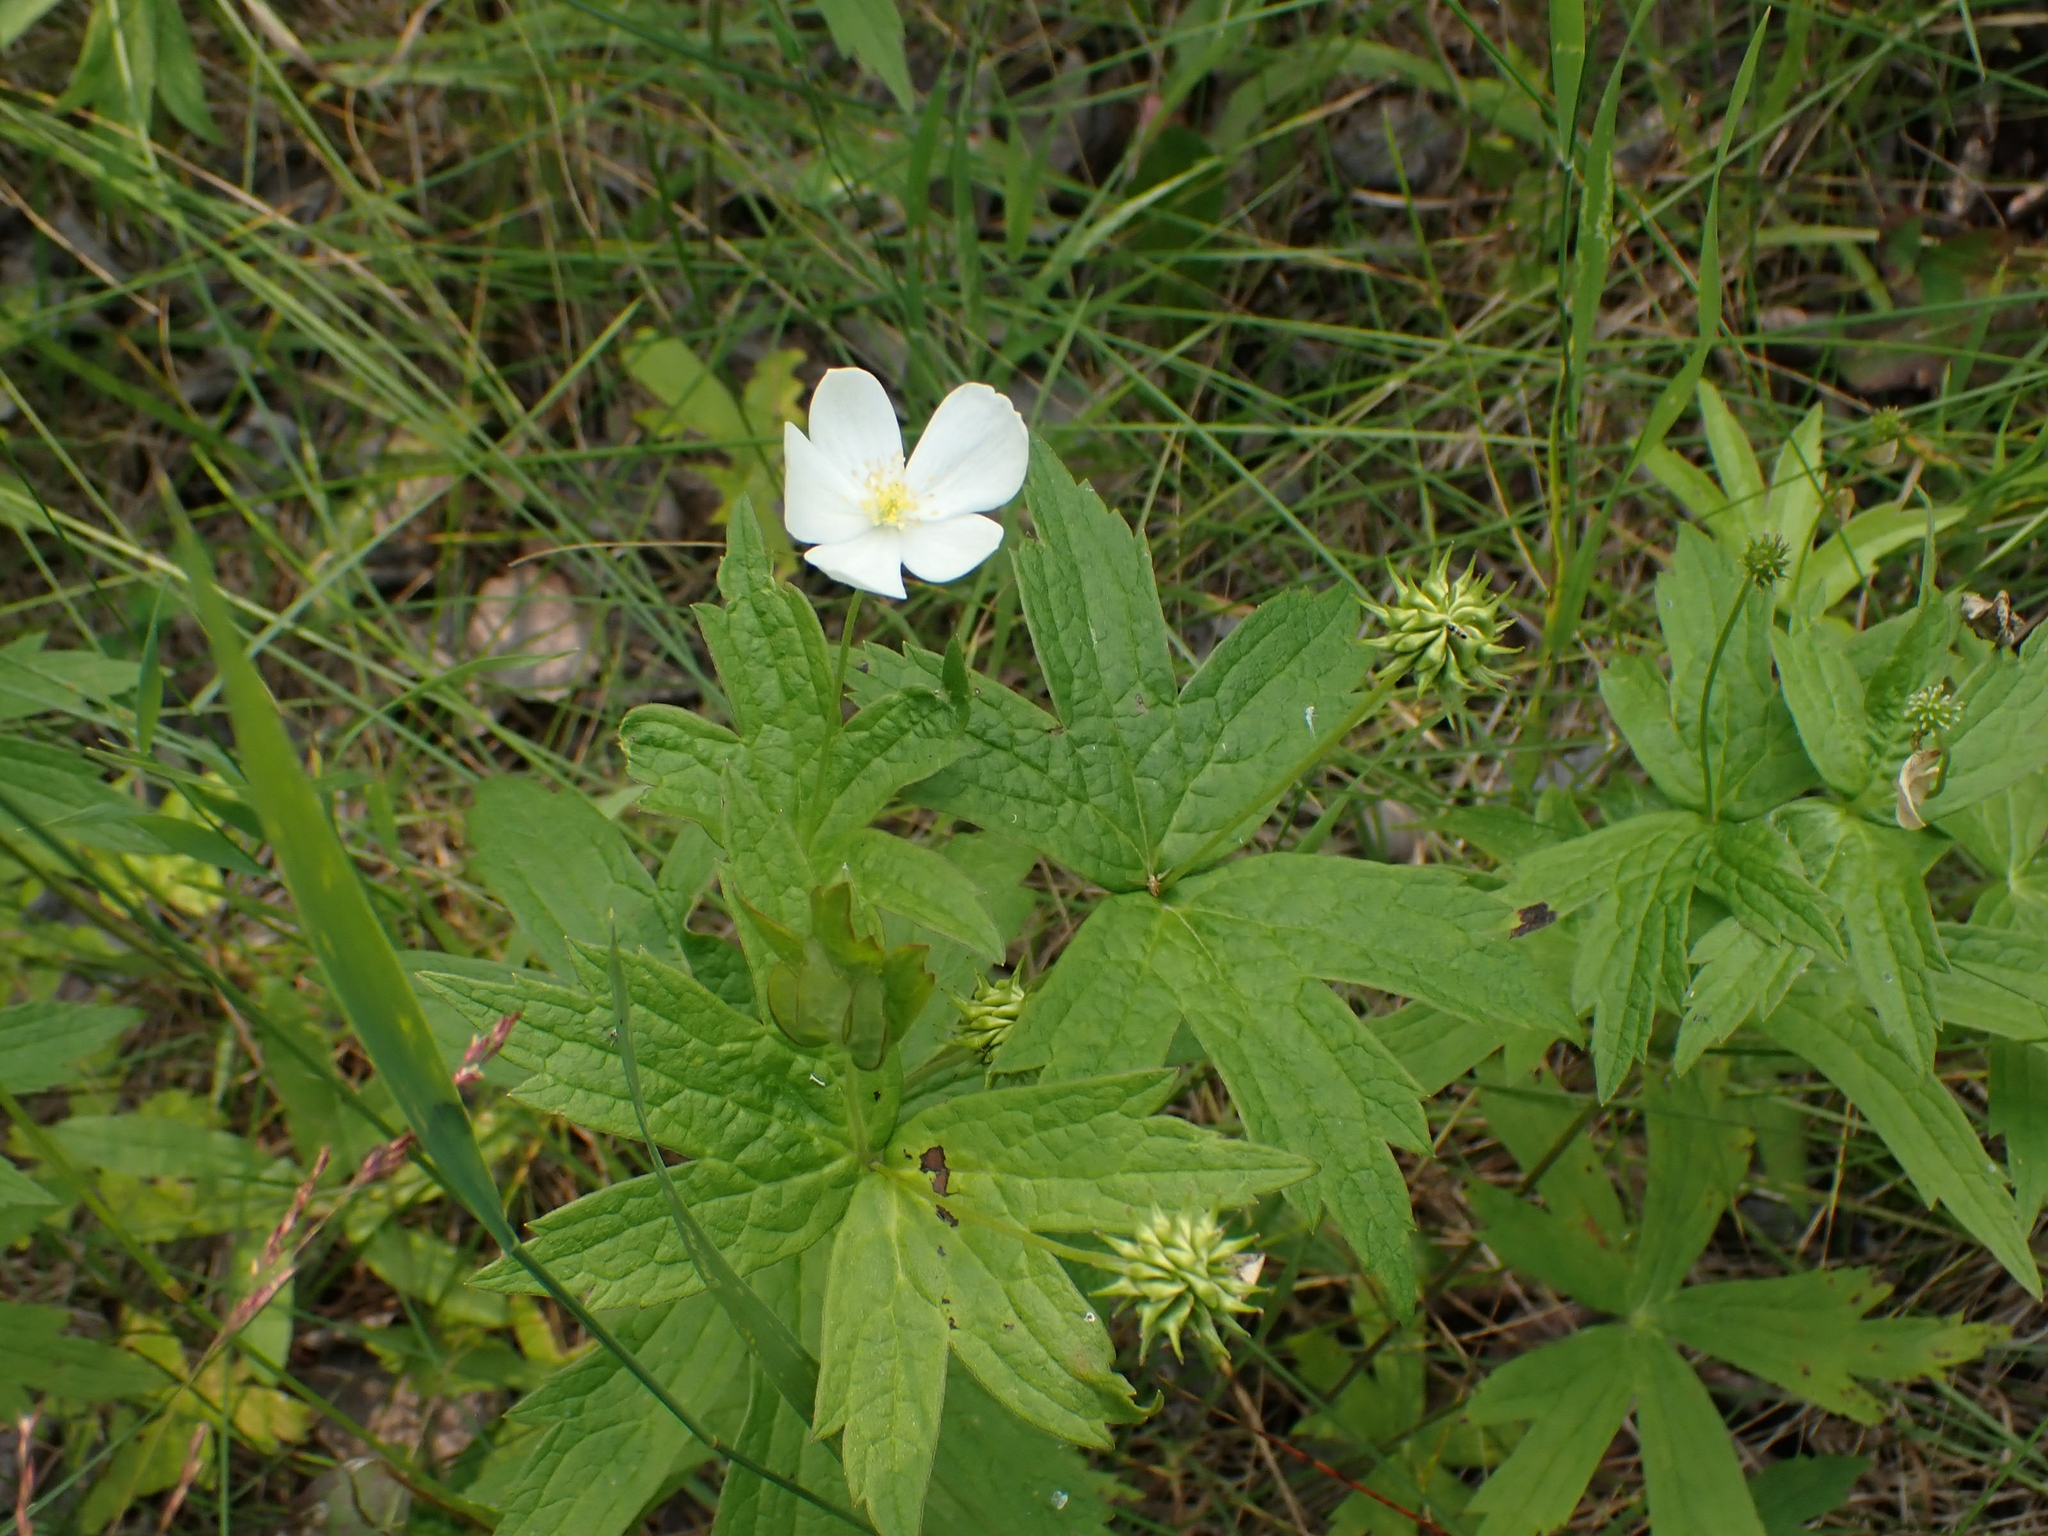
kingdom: Plantae
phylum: Tracheophyta
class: Magnoliopsida
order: Ranunculales
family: Ranunculaceae
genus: Anemonastrum
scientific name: Anemonastrum canadense
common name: Canada anemone
